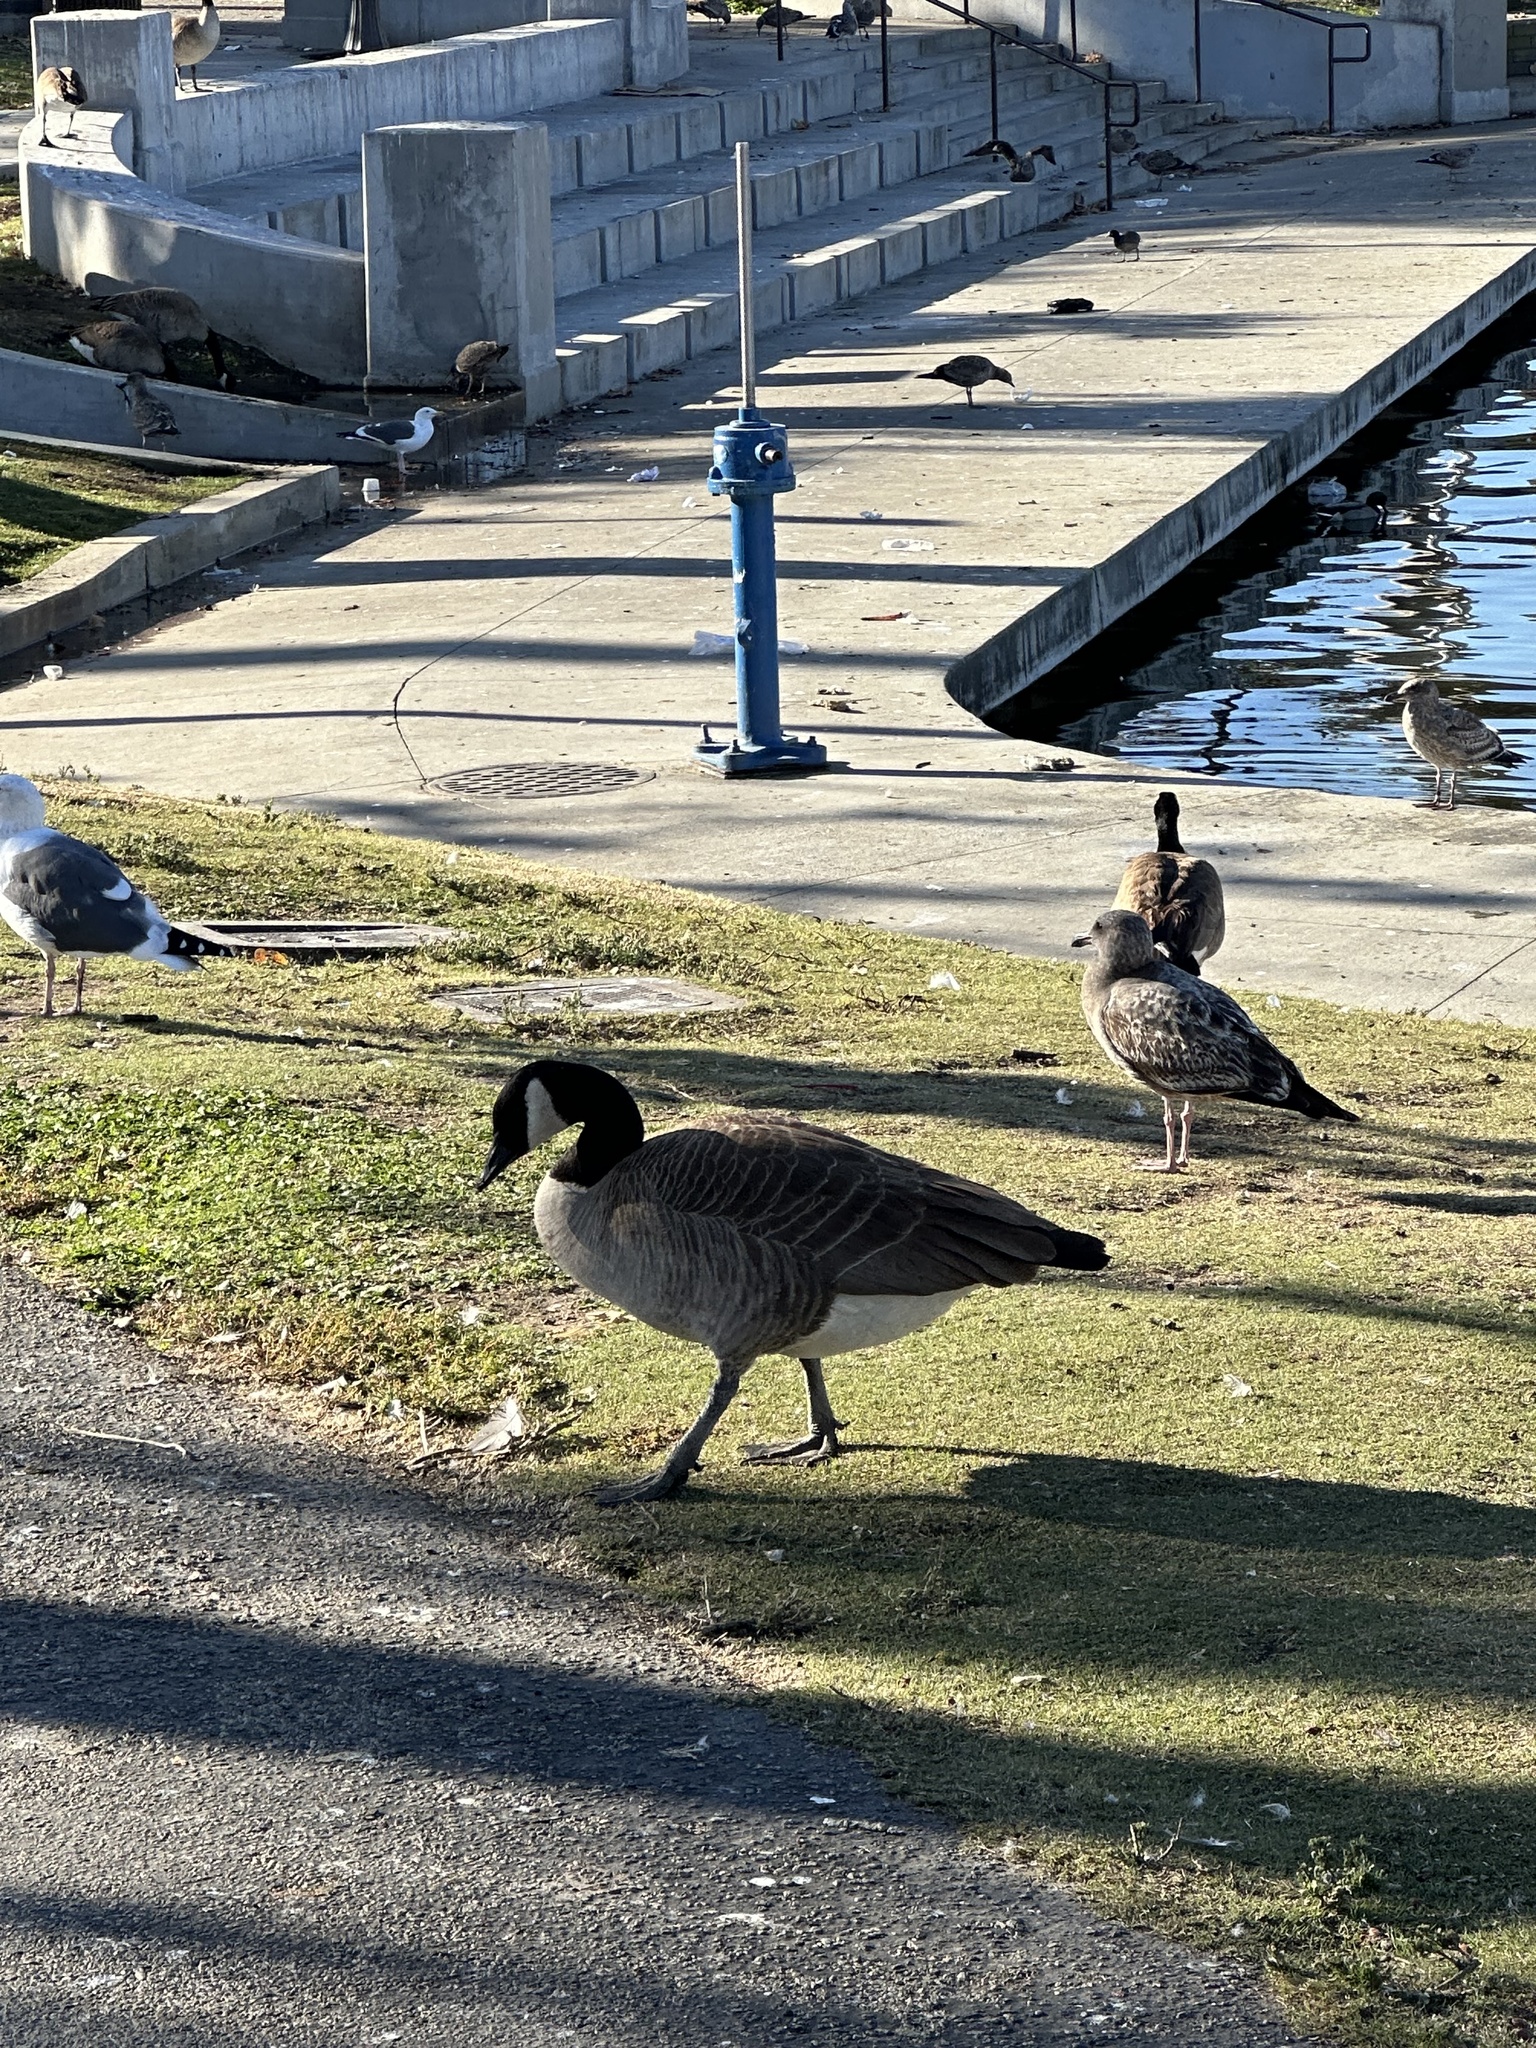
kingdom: Animalia
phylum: Chordata
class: Aves
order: Anseriformes
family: Anatidae
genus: Branta
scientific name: Branta canadensis
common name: Canada goose
